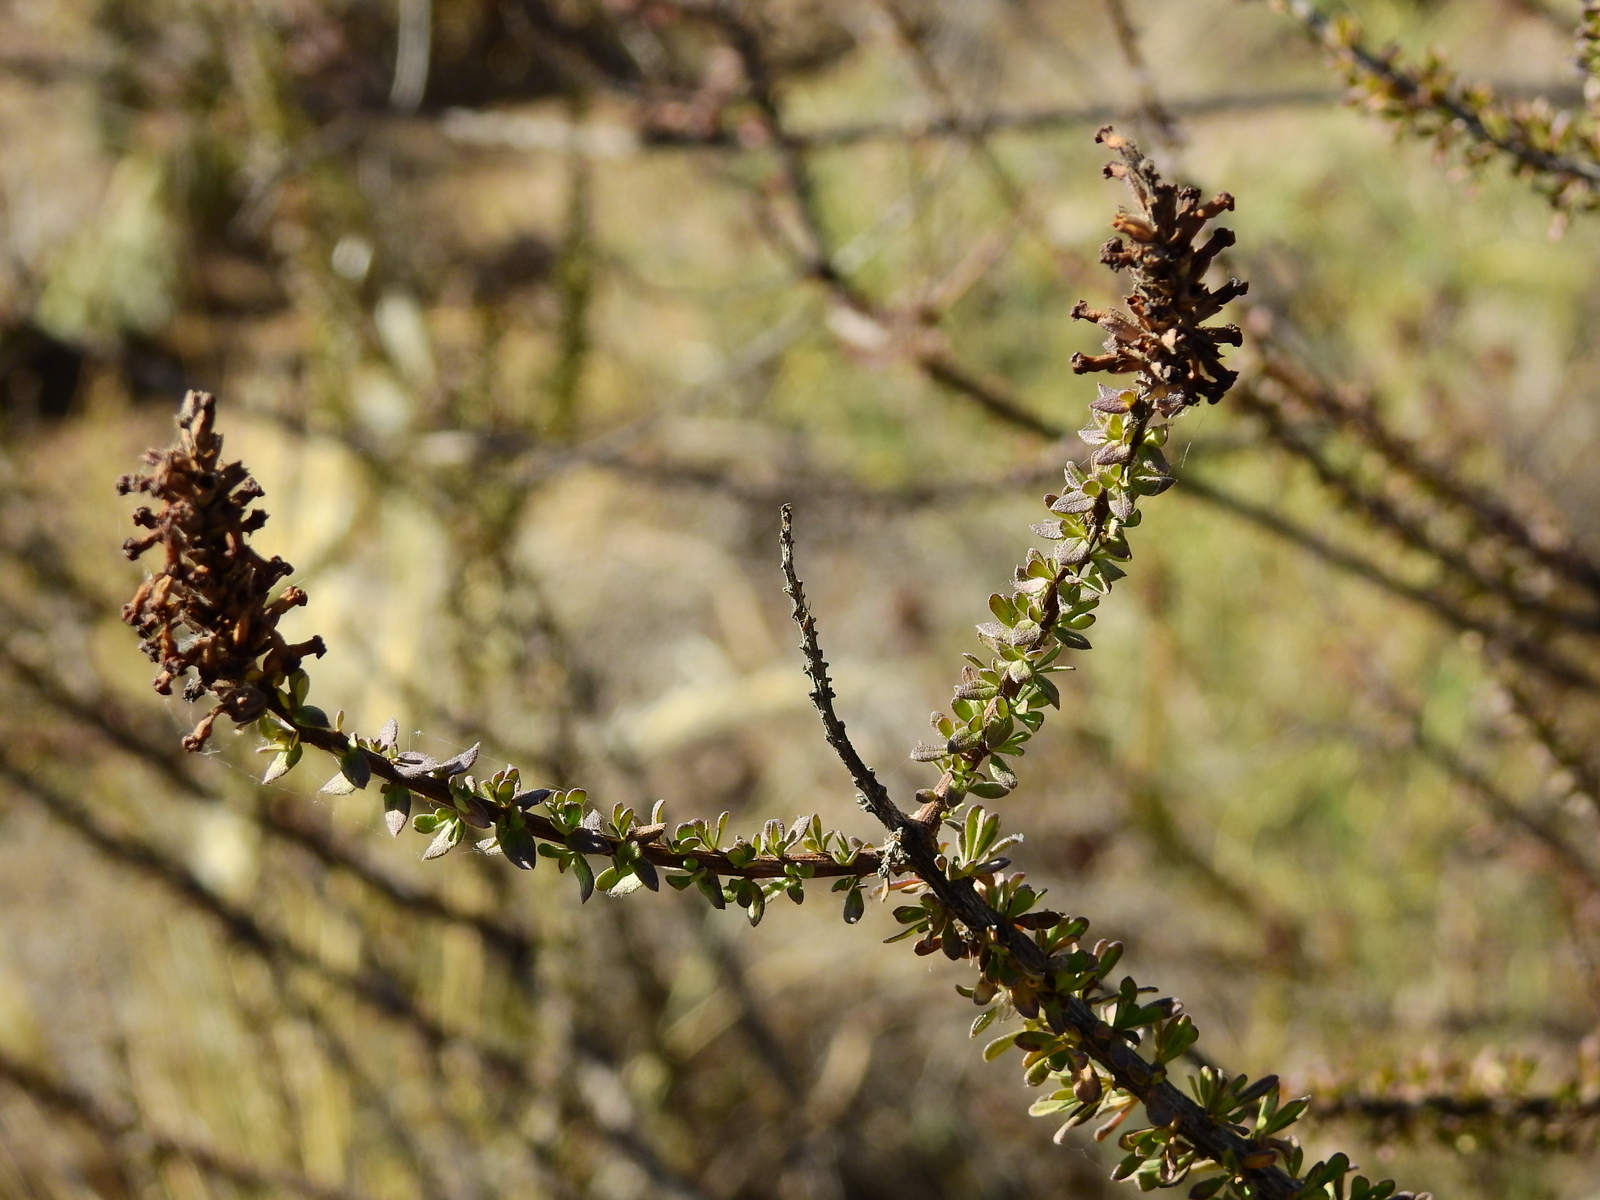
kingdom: Plantae
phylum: Tracheophyta
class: Magnoliopsida
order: Lamiales
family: Verbenaceae
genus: Mulguraea
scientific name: Mulguraea aspera
